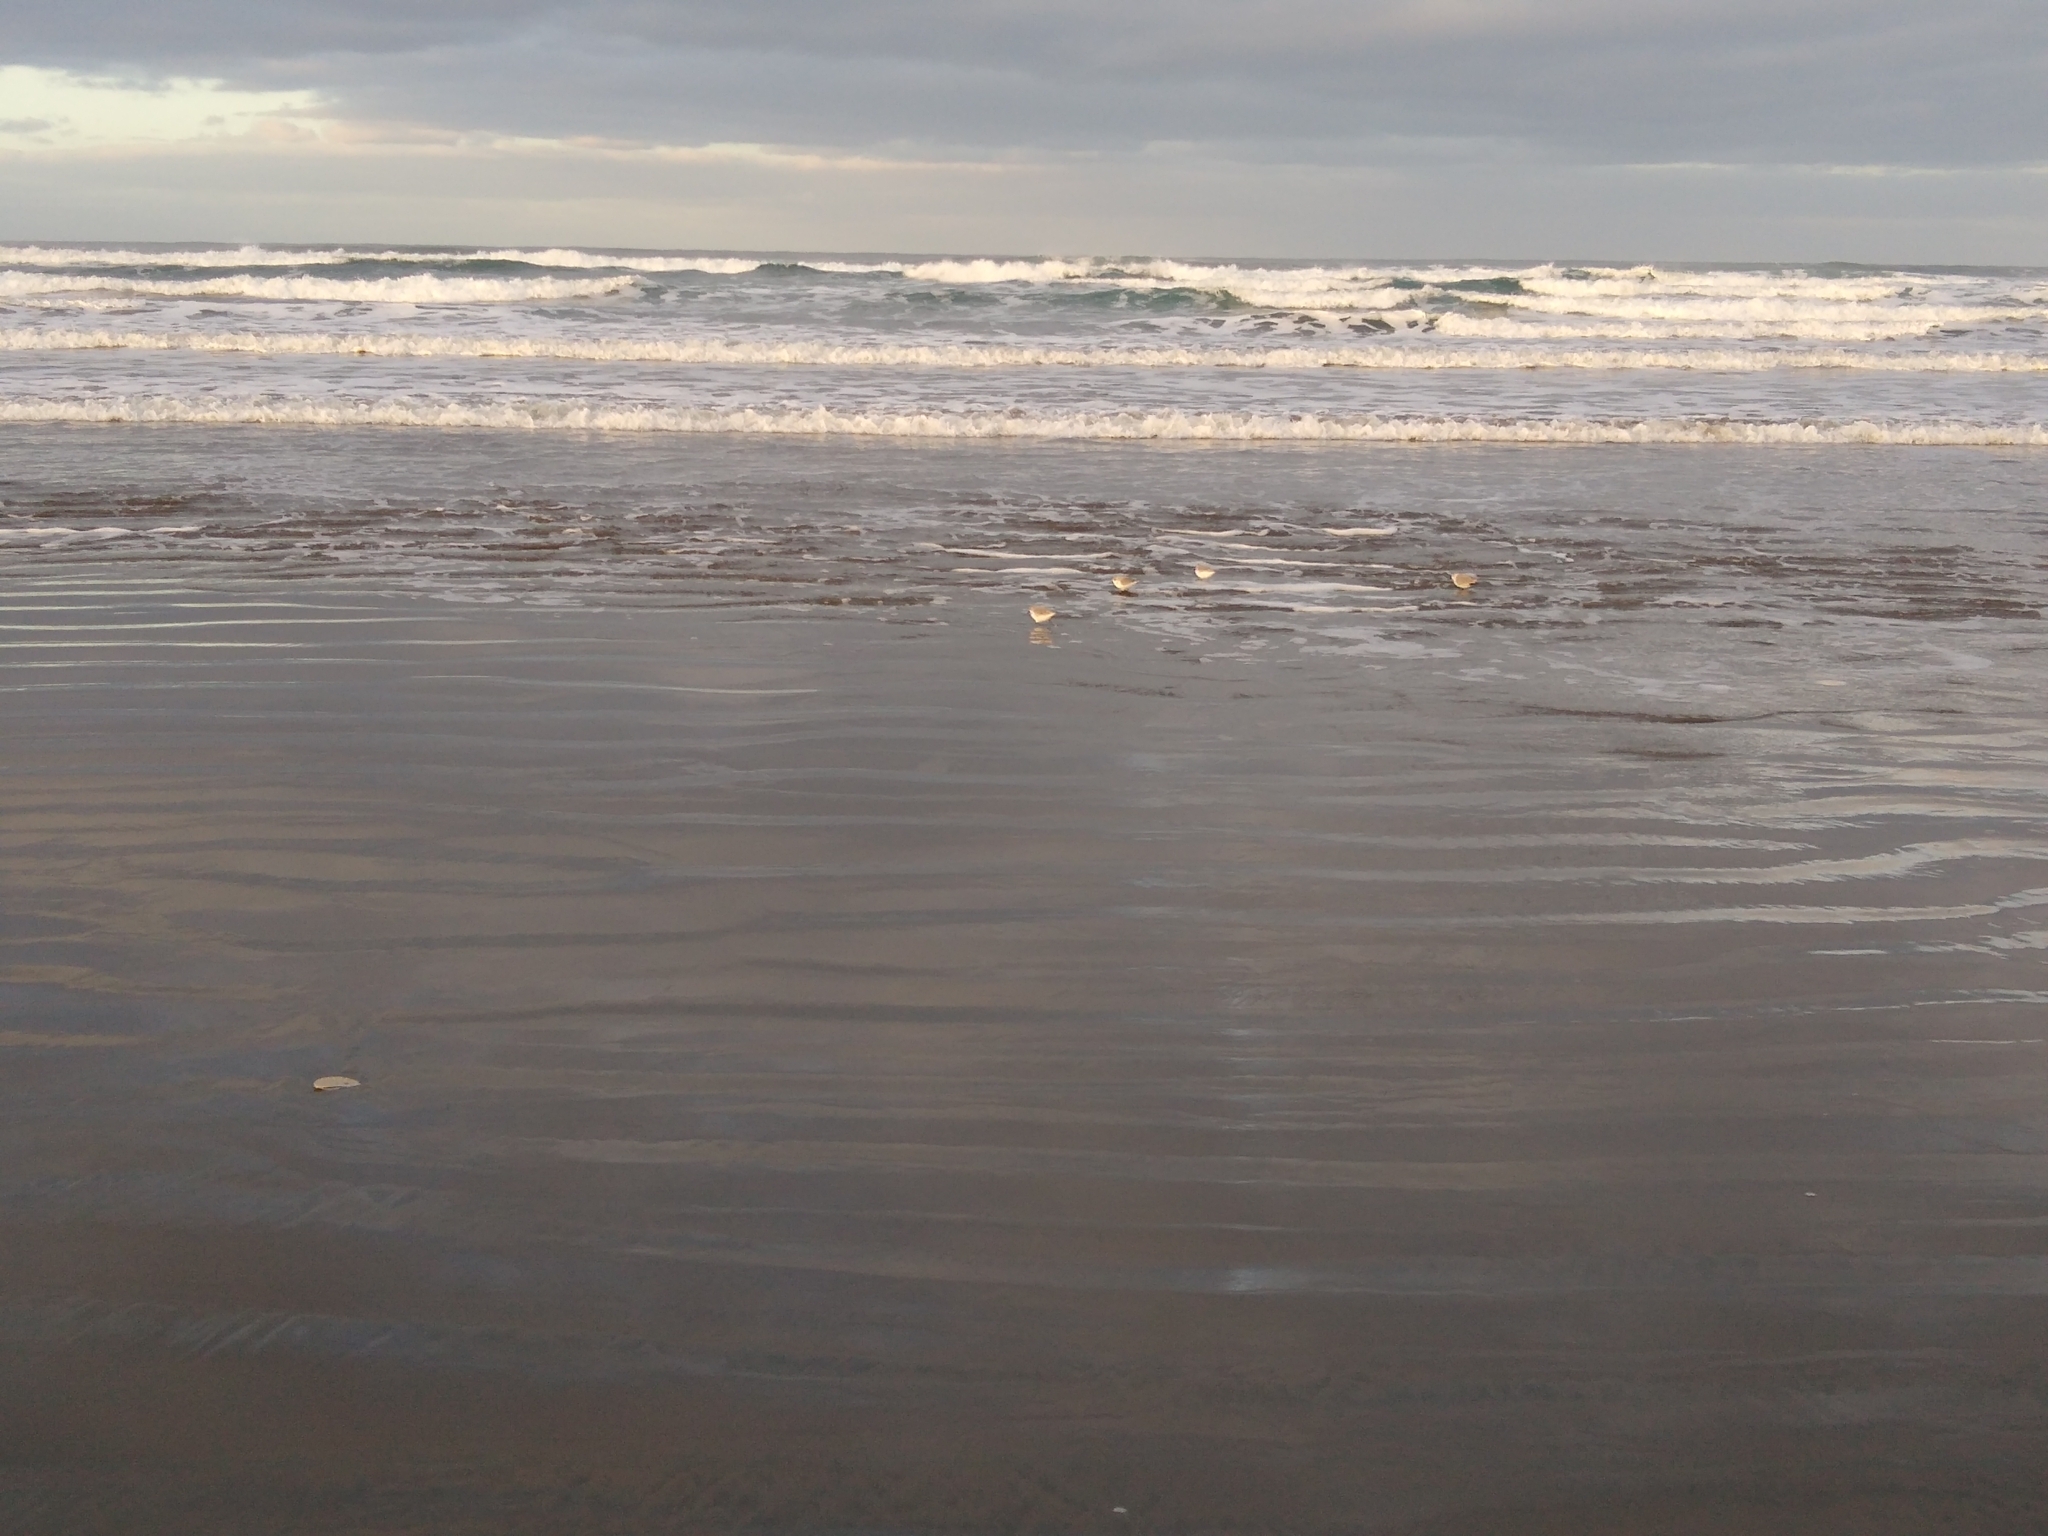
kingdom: Animalia
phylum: Chordata
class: Aves
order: Charadriiformes
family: Scolopacidae
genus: Calidris
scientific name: Calidris alba
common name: Sanderling
